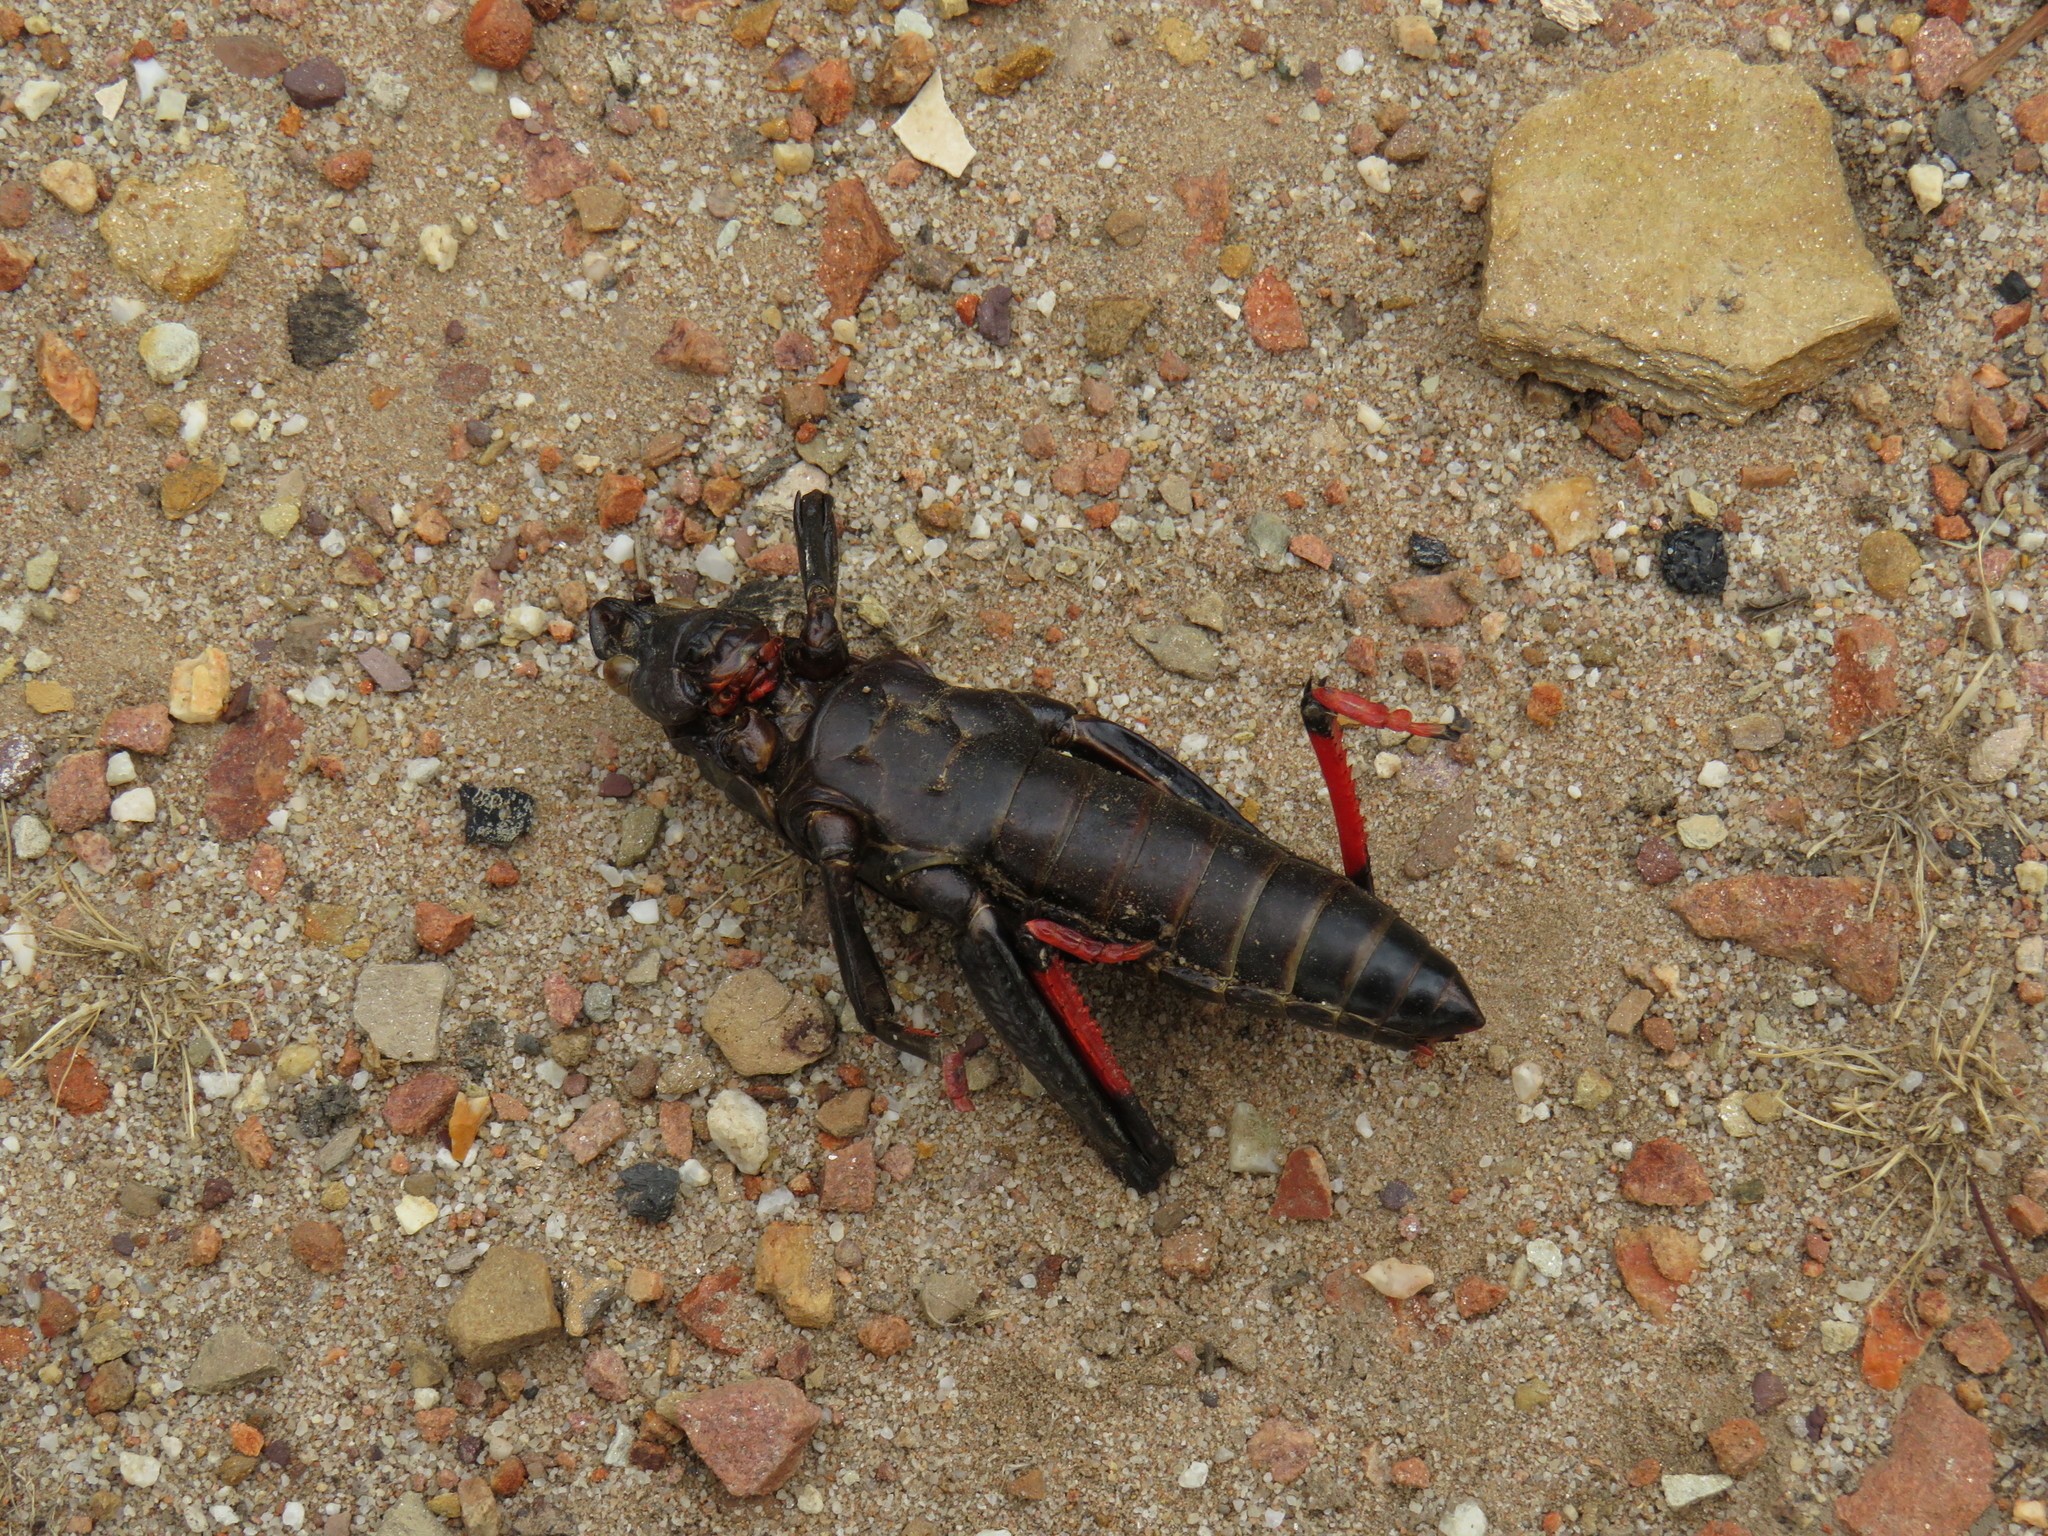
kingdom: Animalia
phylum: Arthropoda
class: Insecta
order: Orthoptera
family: Pyrgomorphidae
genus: Dictyophorus
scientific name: Dictyophorus spumans
